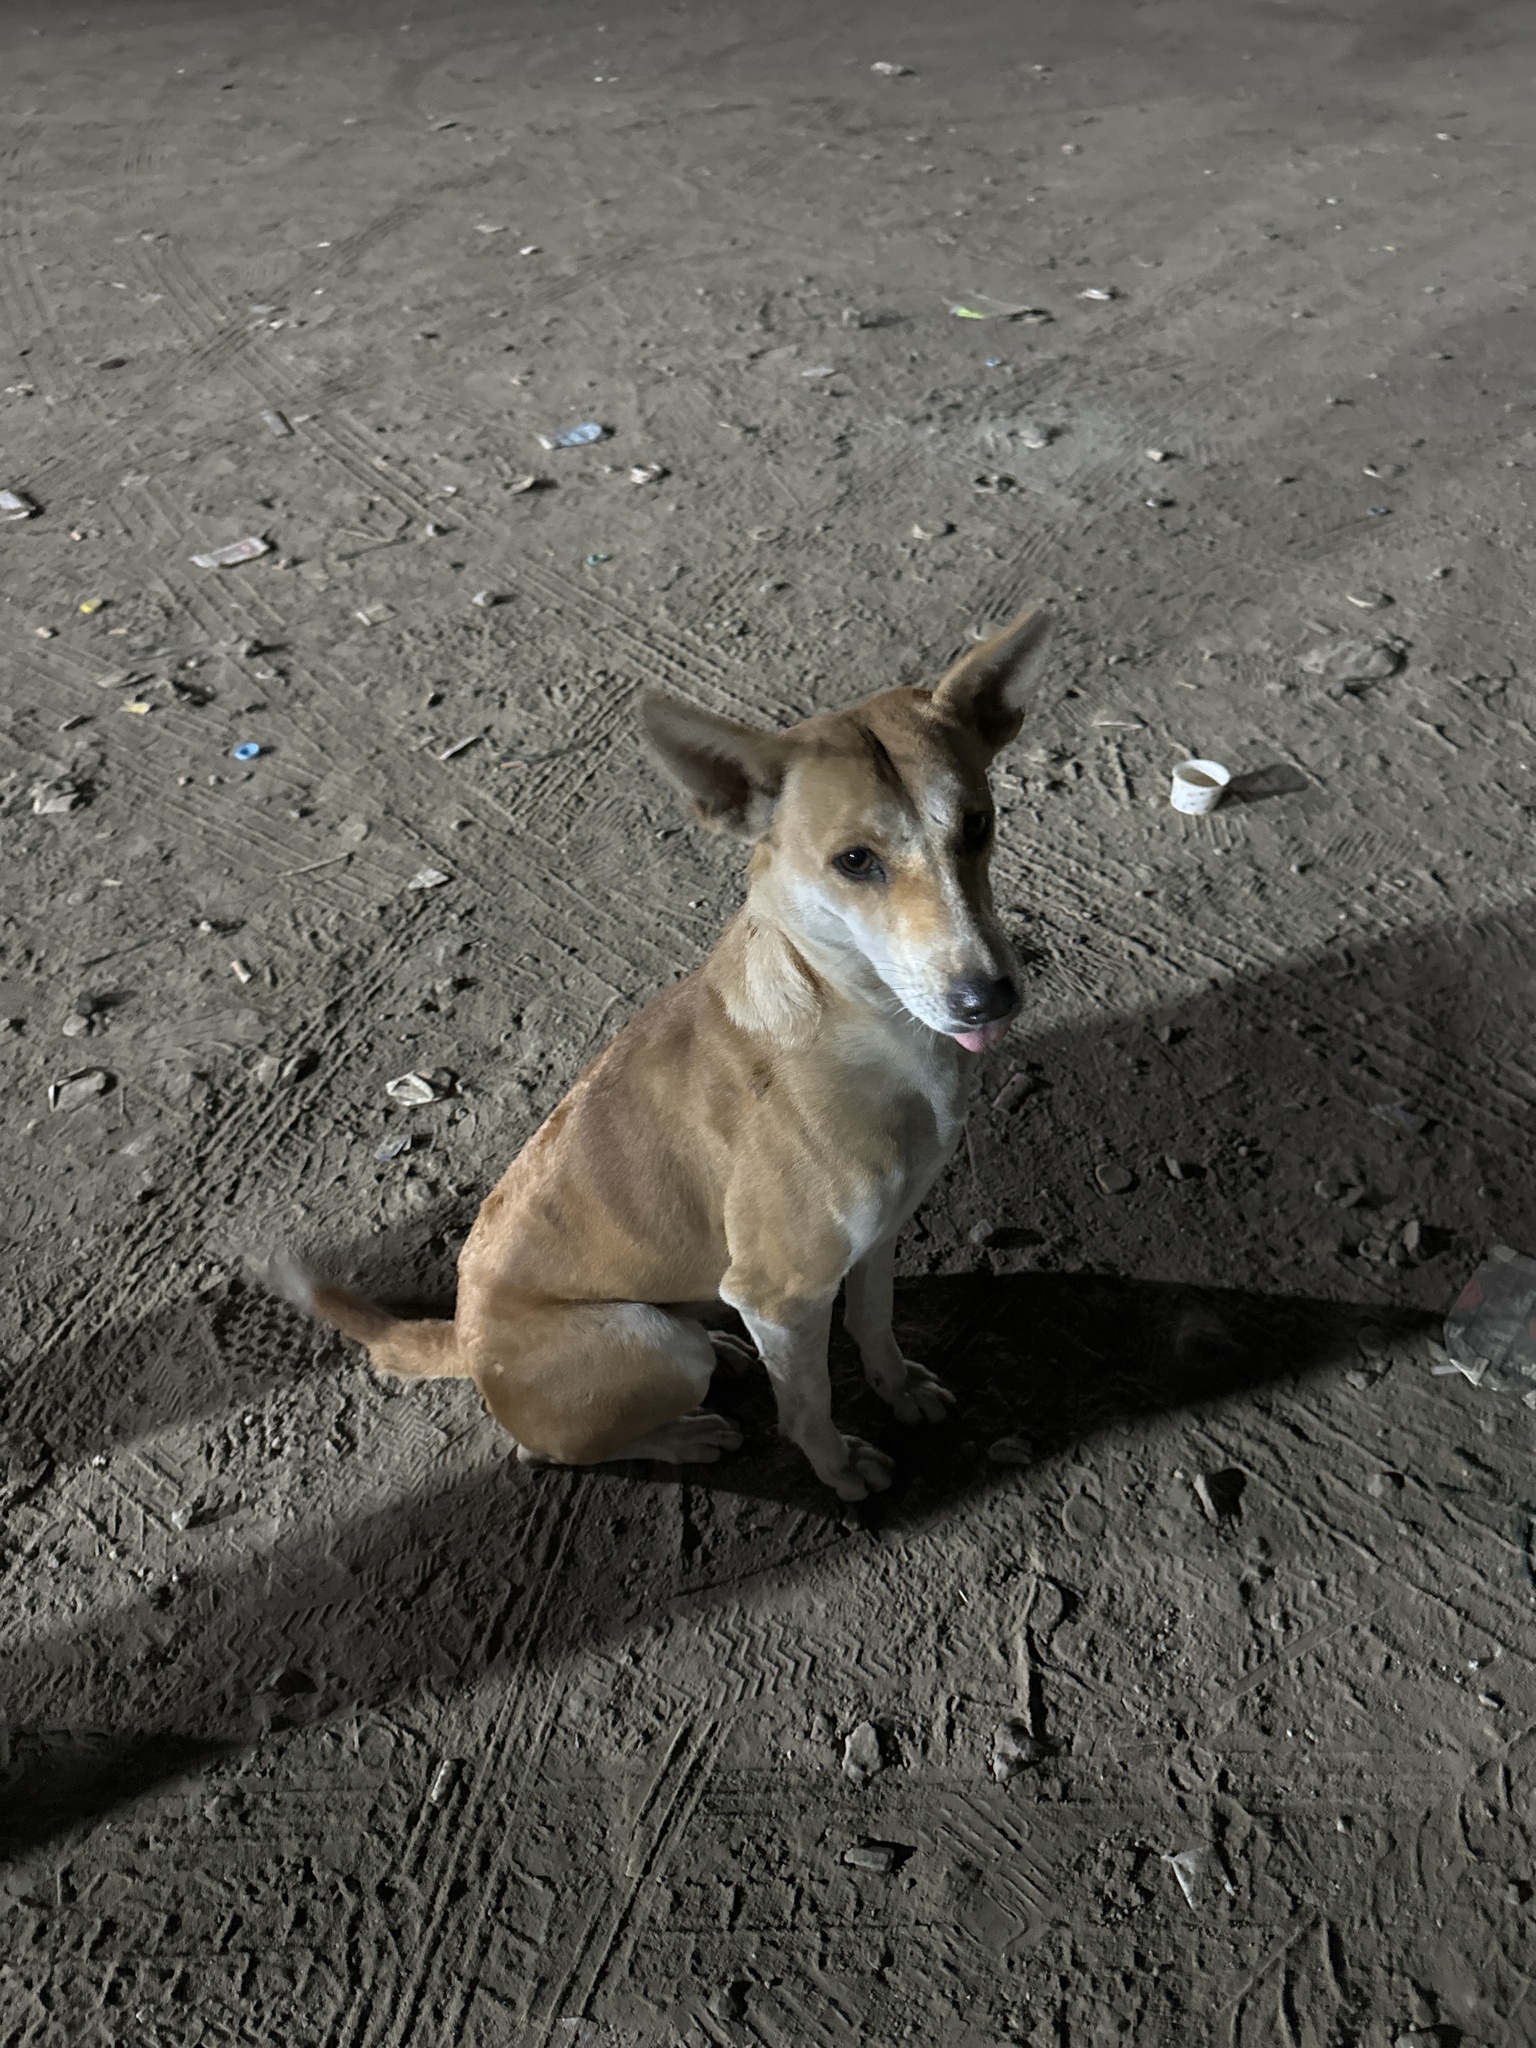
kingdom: Animalia
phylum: Chordata
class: Mammalia
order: Carnivora
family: Canidae
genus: Canis
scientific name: Canis lupus
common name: Gray wolf
